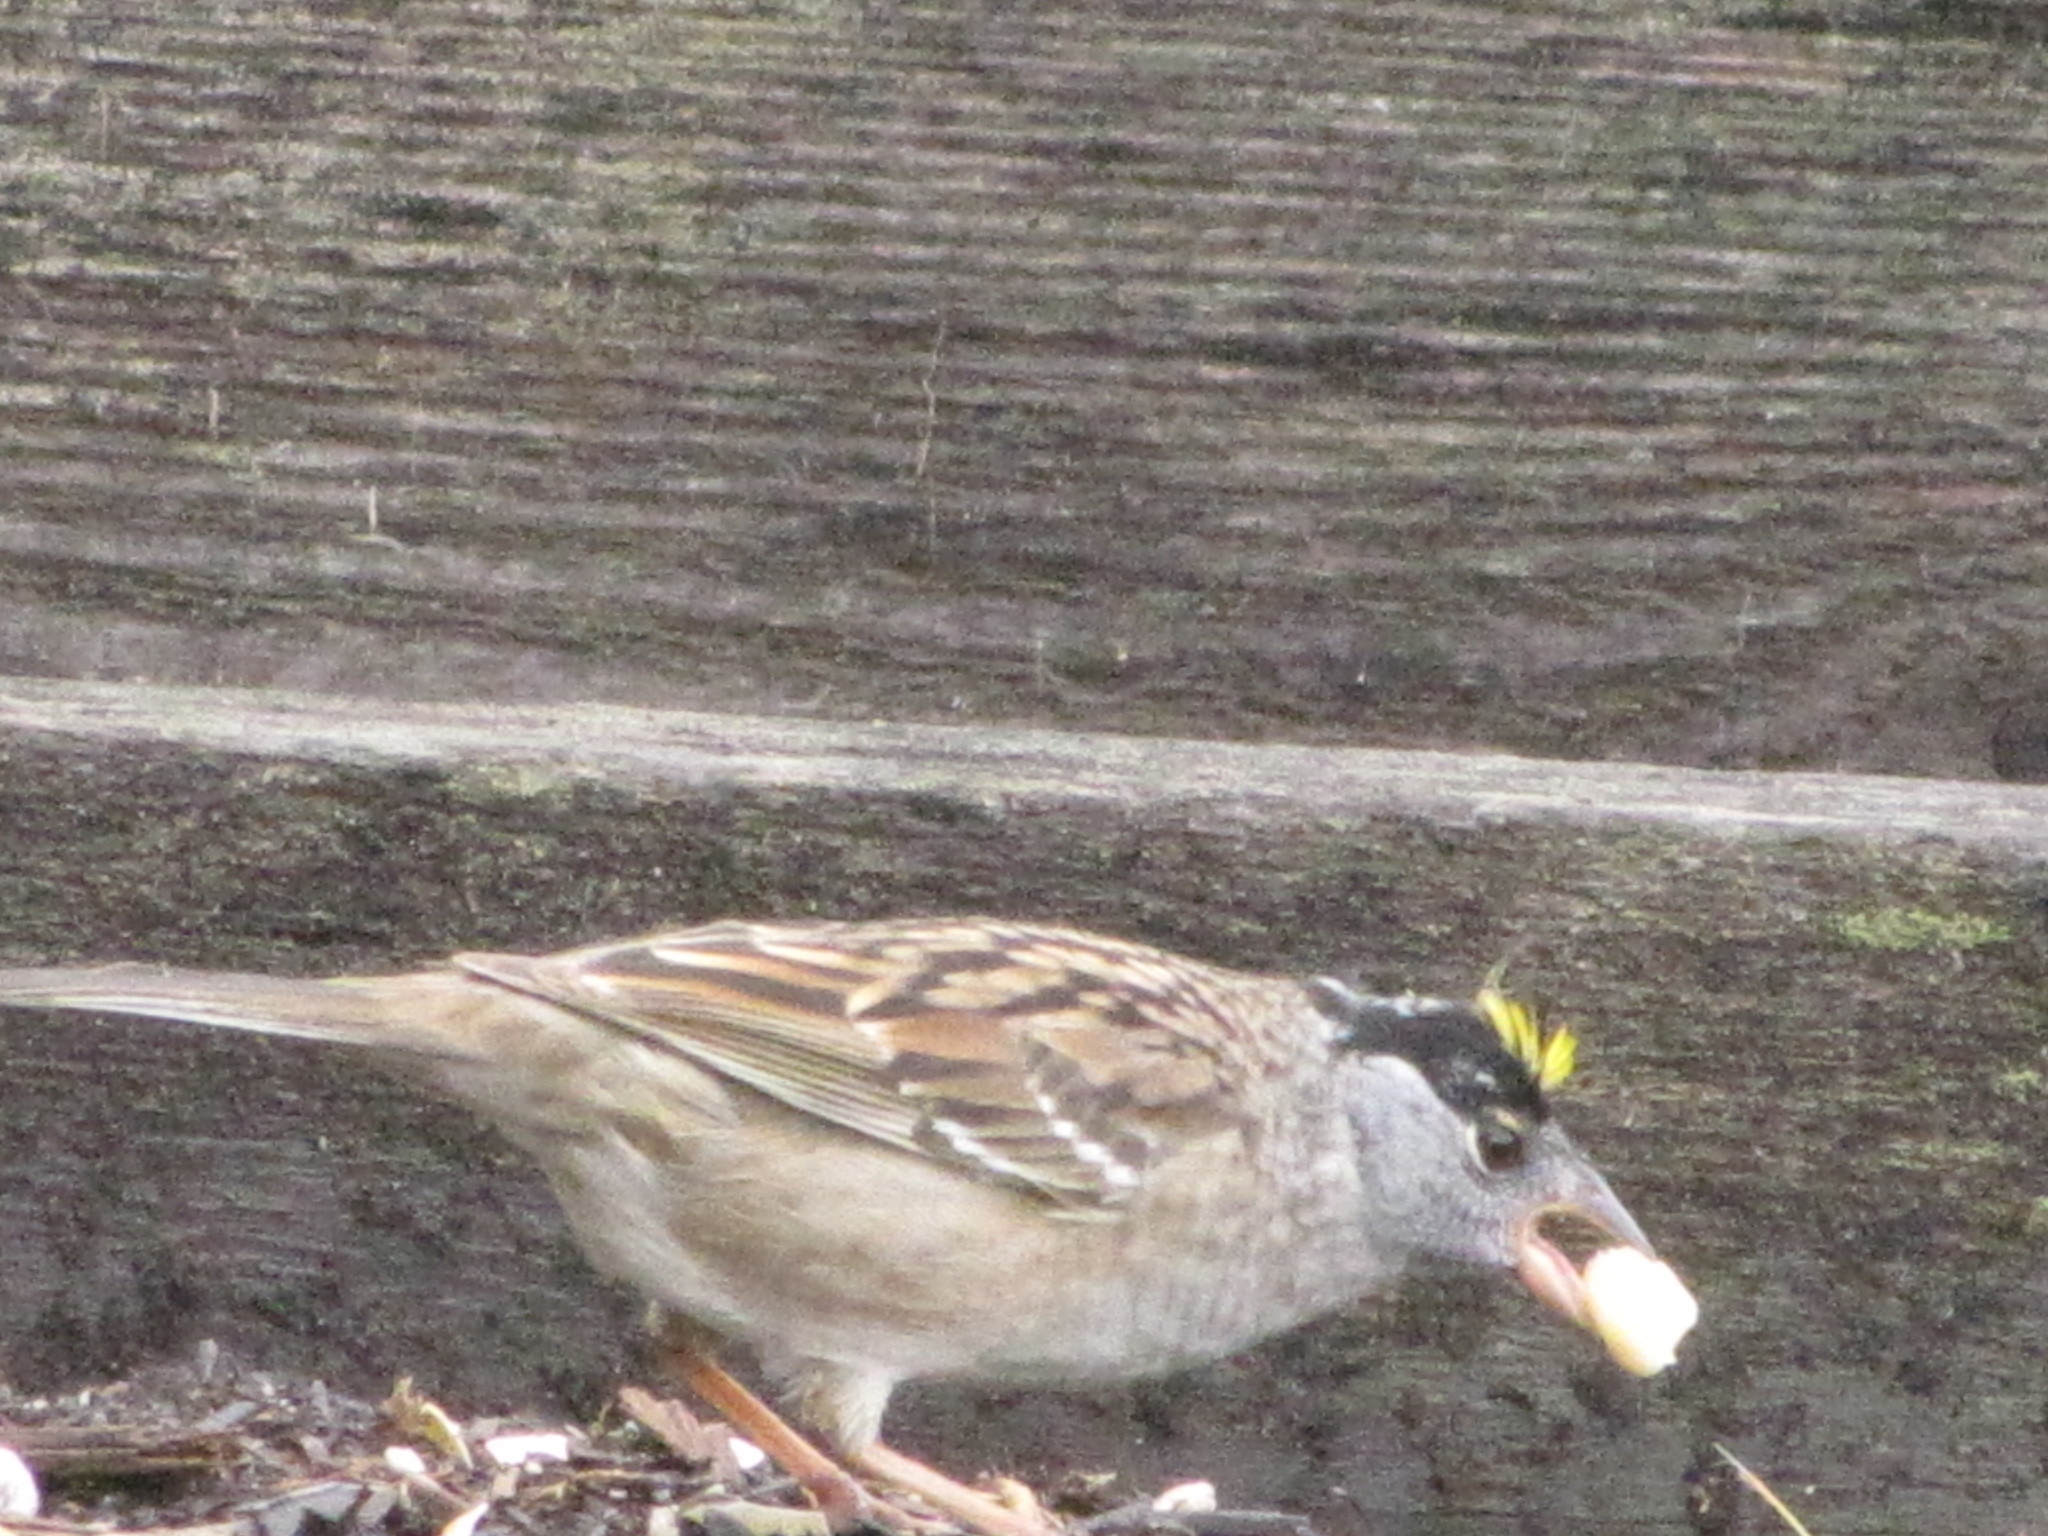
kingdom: Animalia
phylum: Chordata
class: Aves
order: Passeriformes
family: Passerellidae
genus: Zonotrichia
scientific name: Zonotrichia atricapilla
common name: Golden-crowned sparrow
